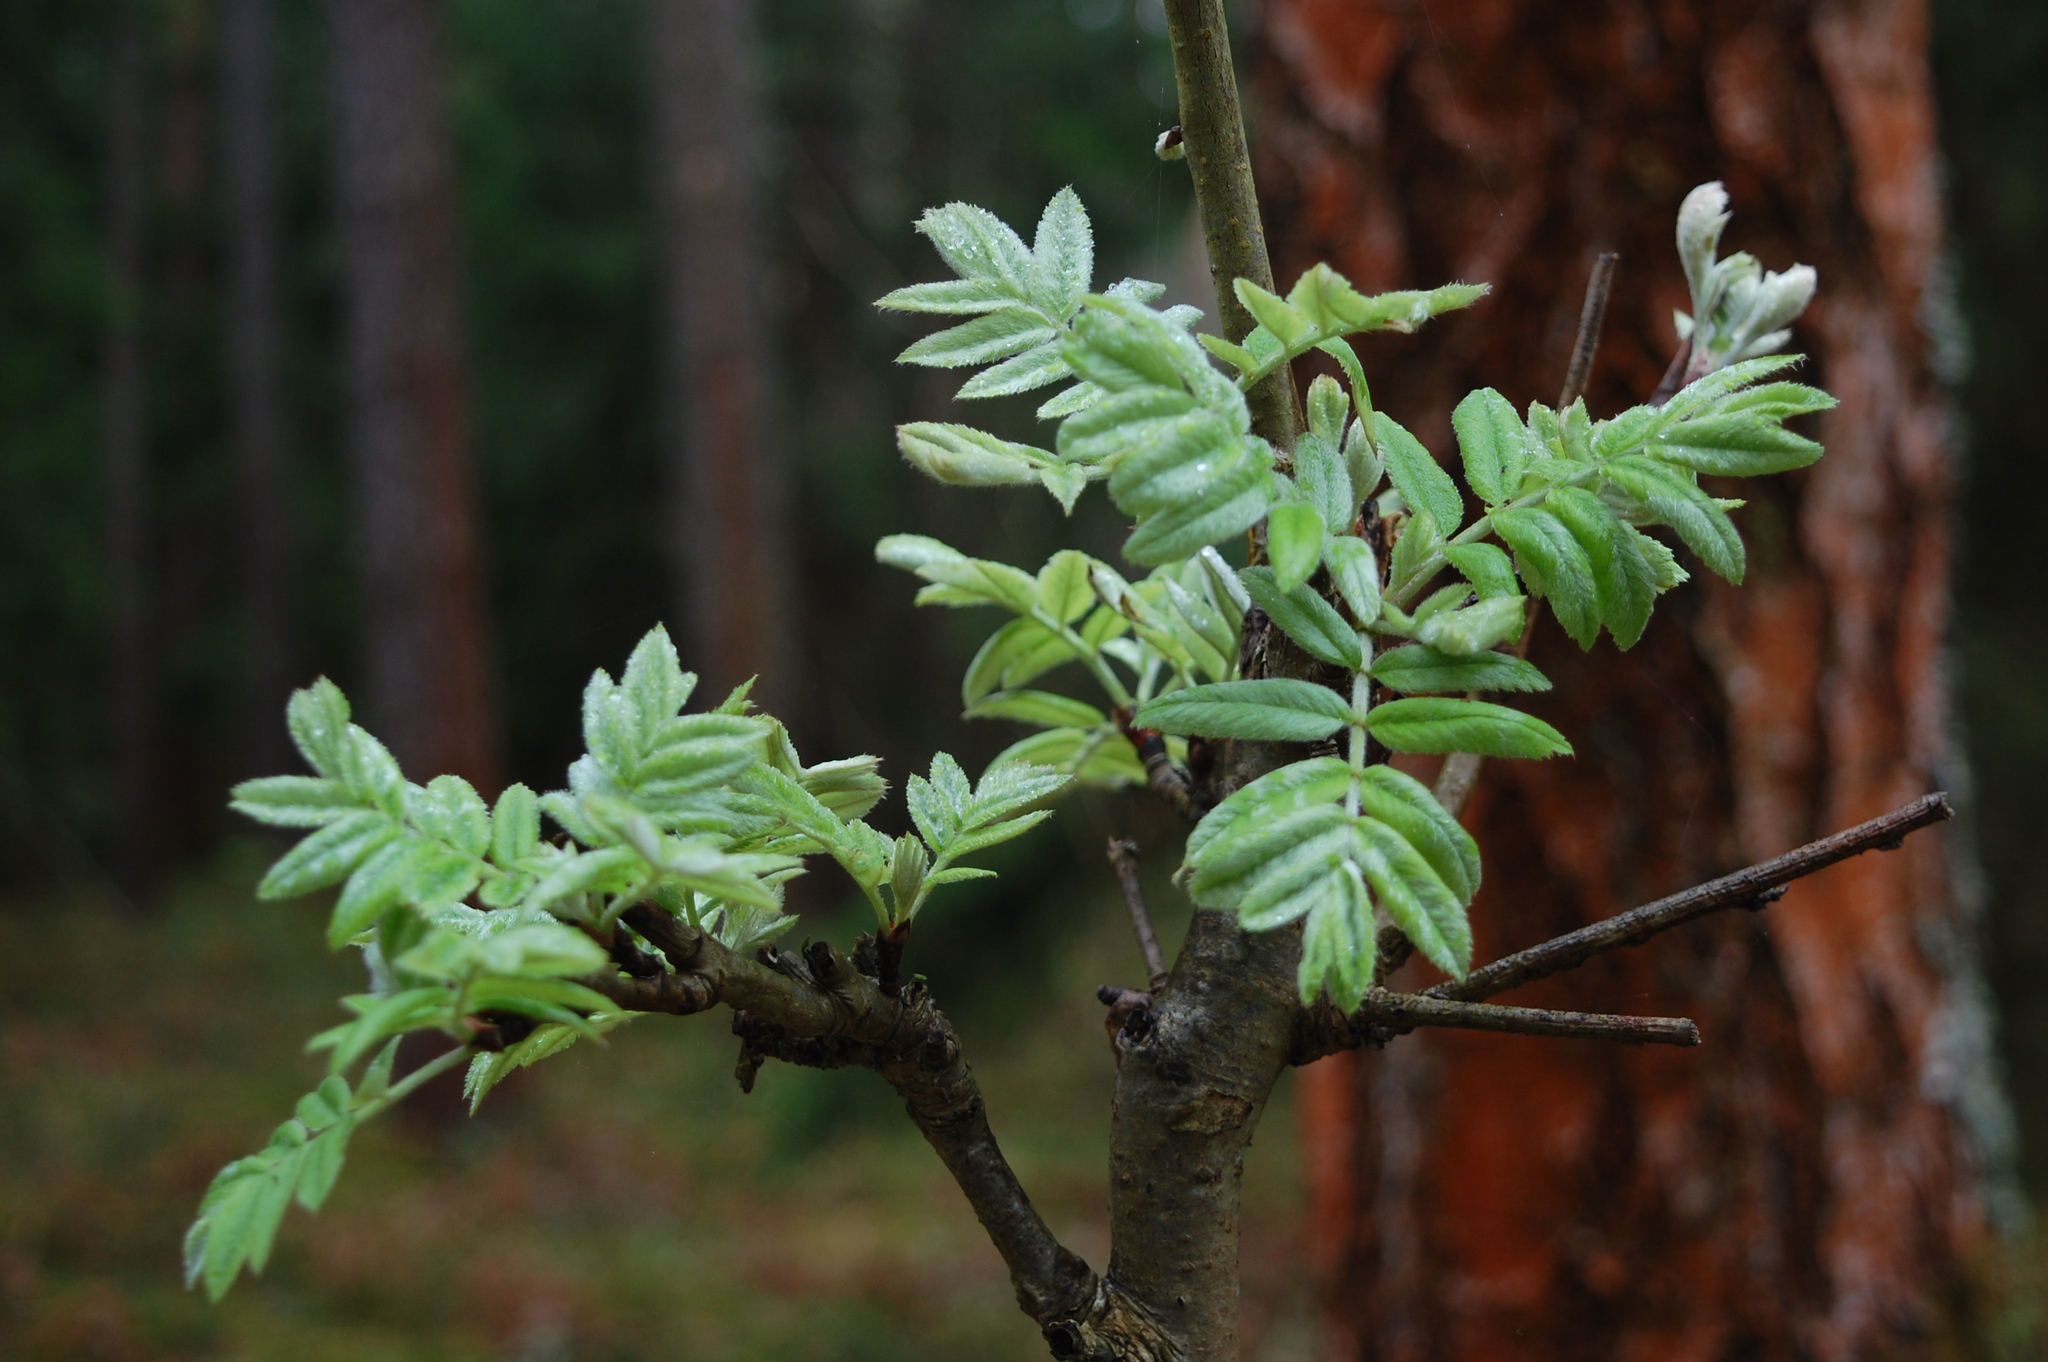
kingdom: Plantae
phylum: Tracheophyta
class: Magnoliopsida
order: Rosales
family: Rosaceae
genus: Sorbus
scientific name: Sorbus aucuparia
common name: Rowan
